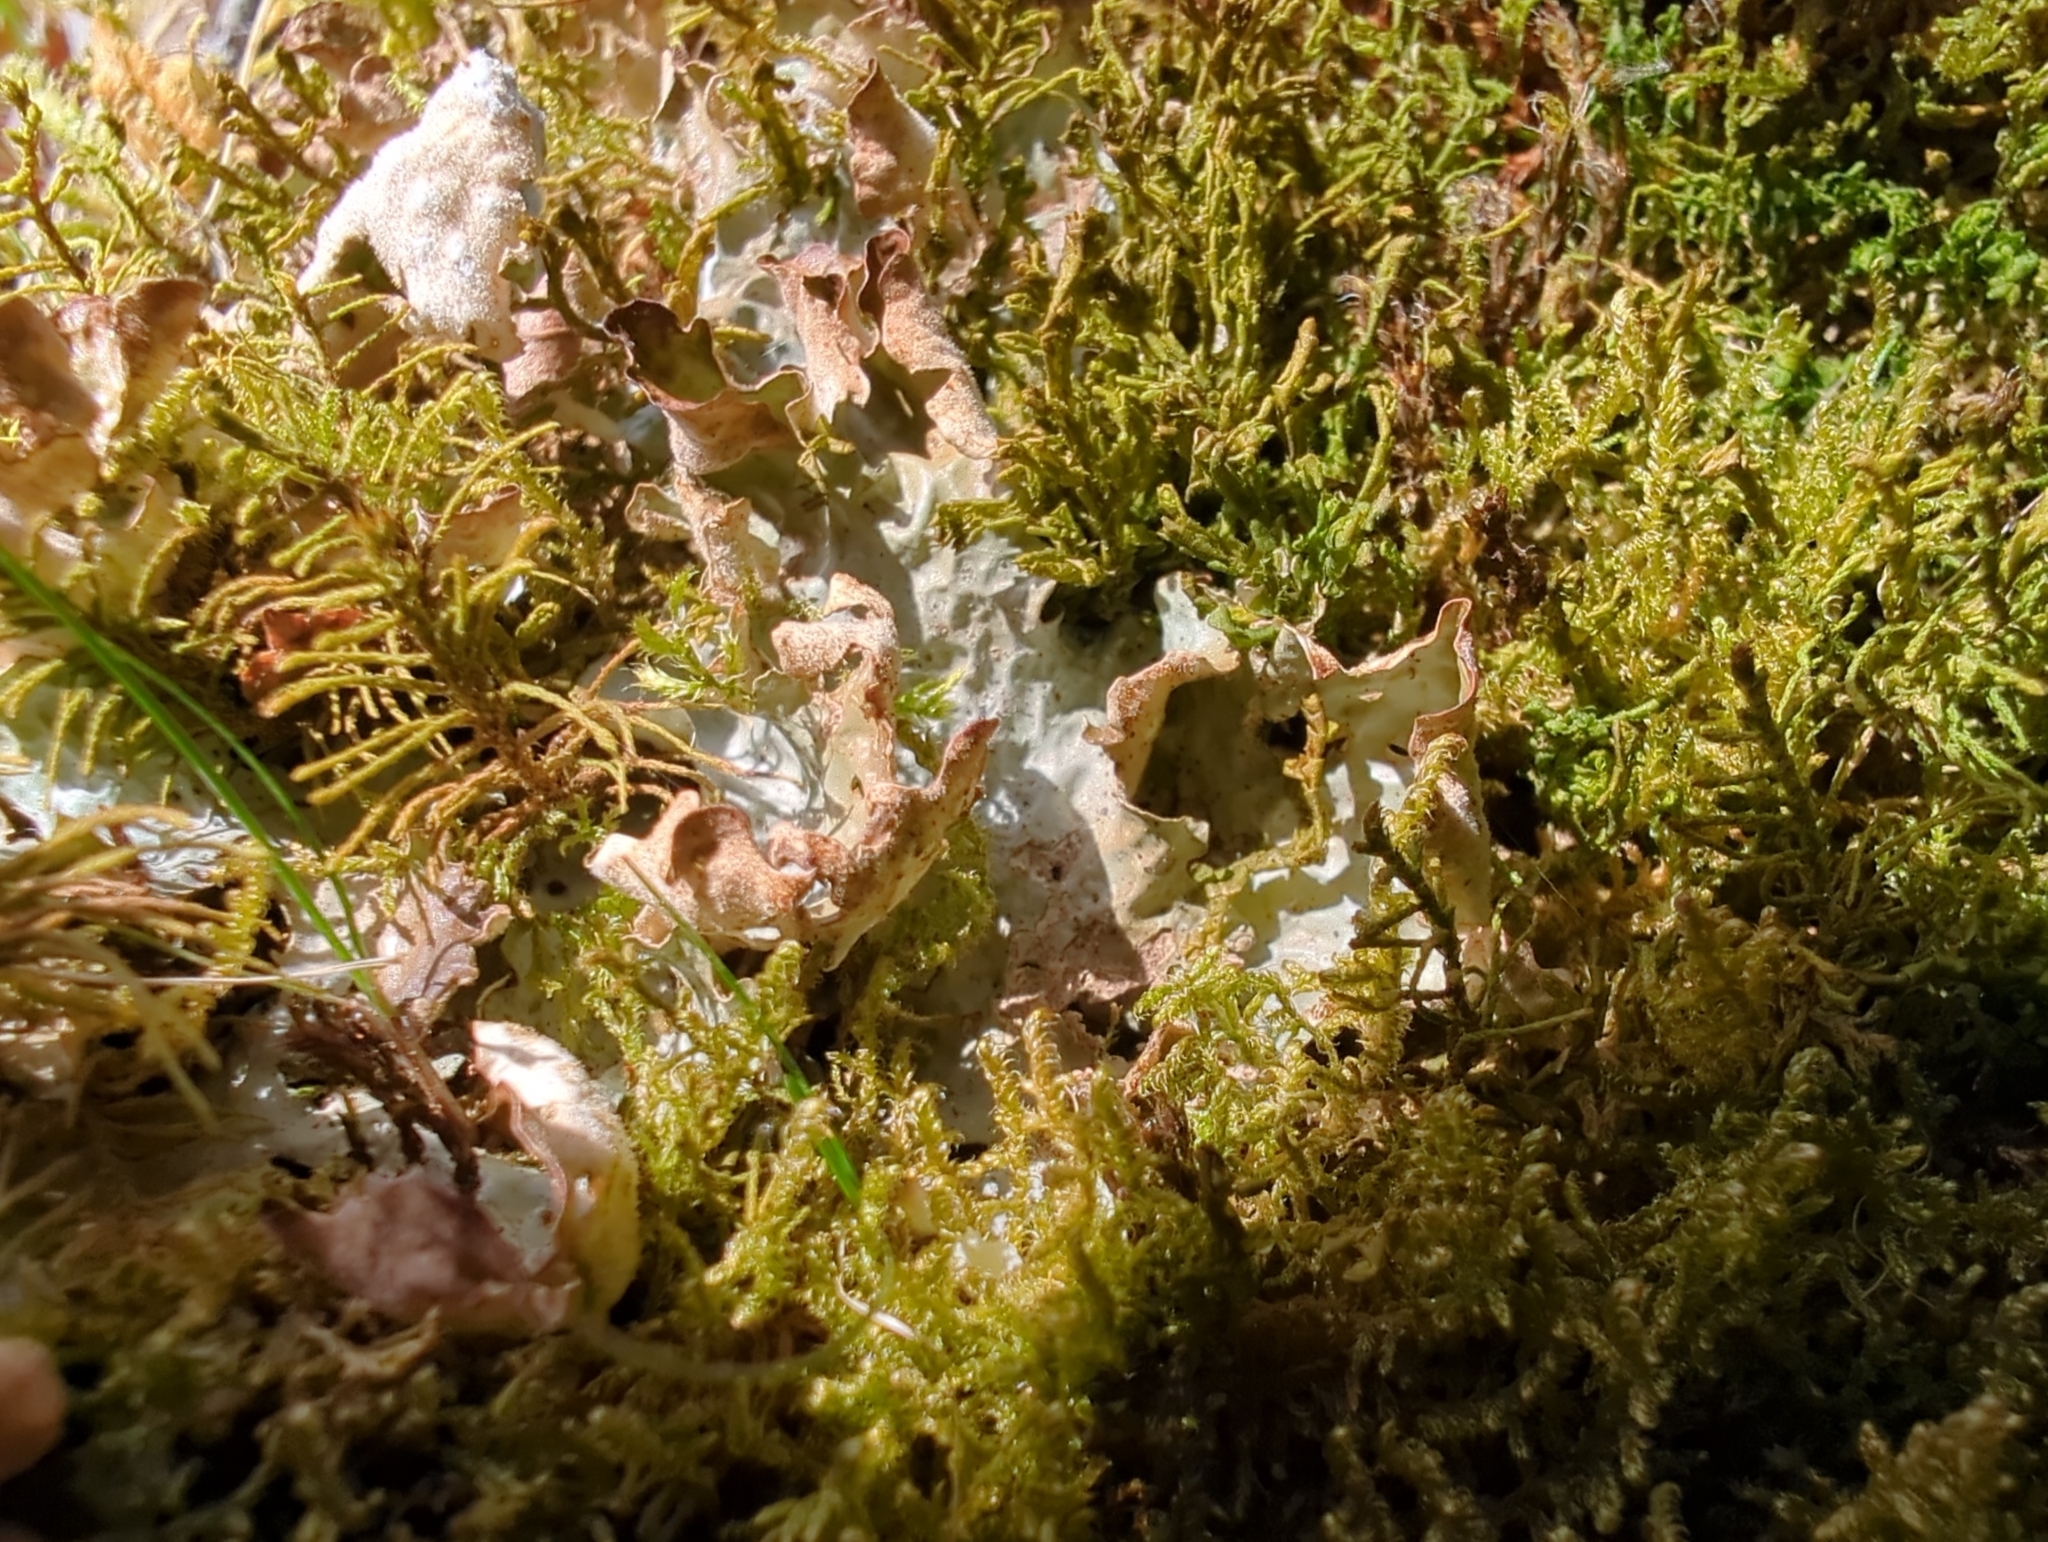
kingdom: Fungi
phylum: Ascomycota
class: Lecanoromycetes
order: Peltigerales
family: Lobariaceae
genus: Lobaria
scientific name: Lobaria linita
